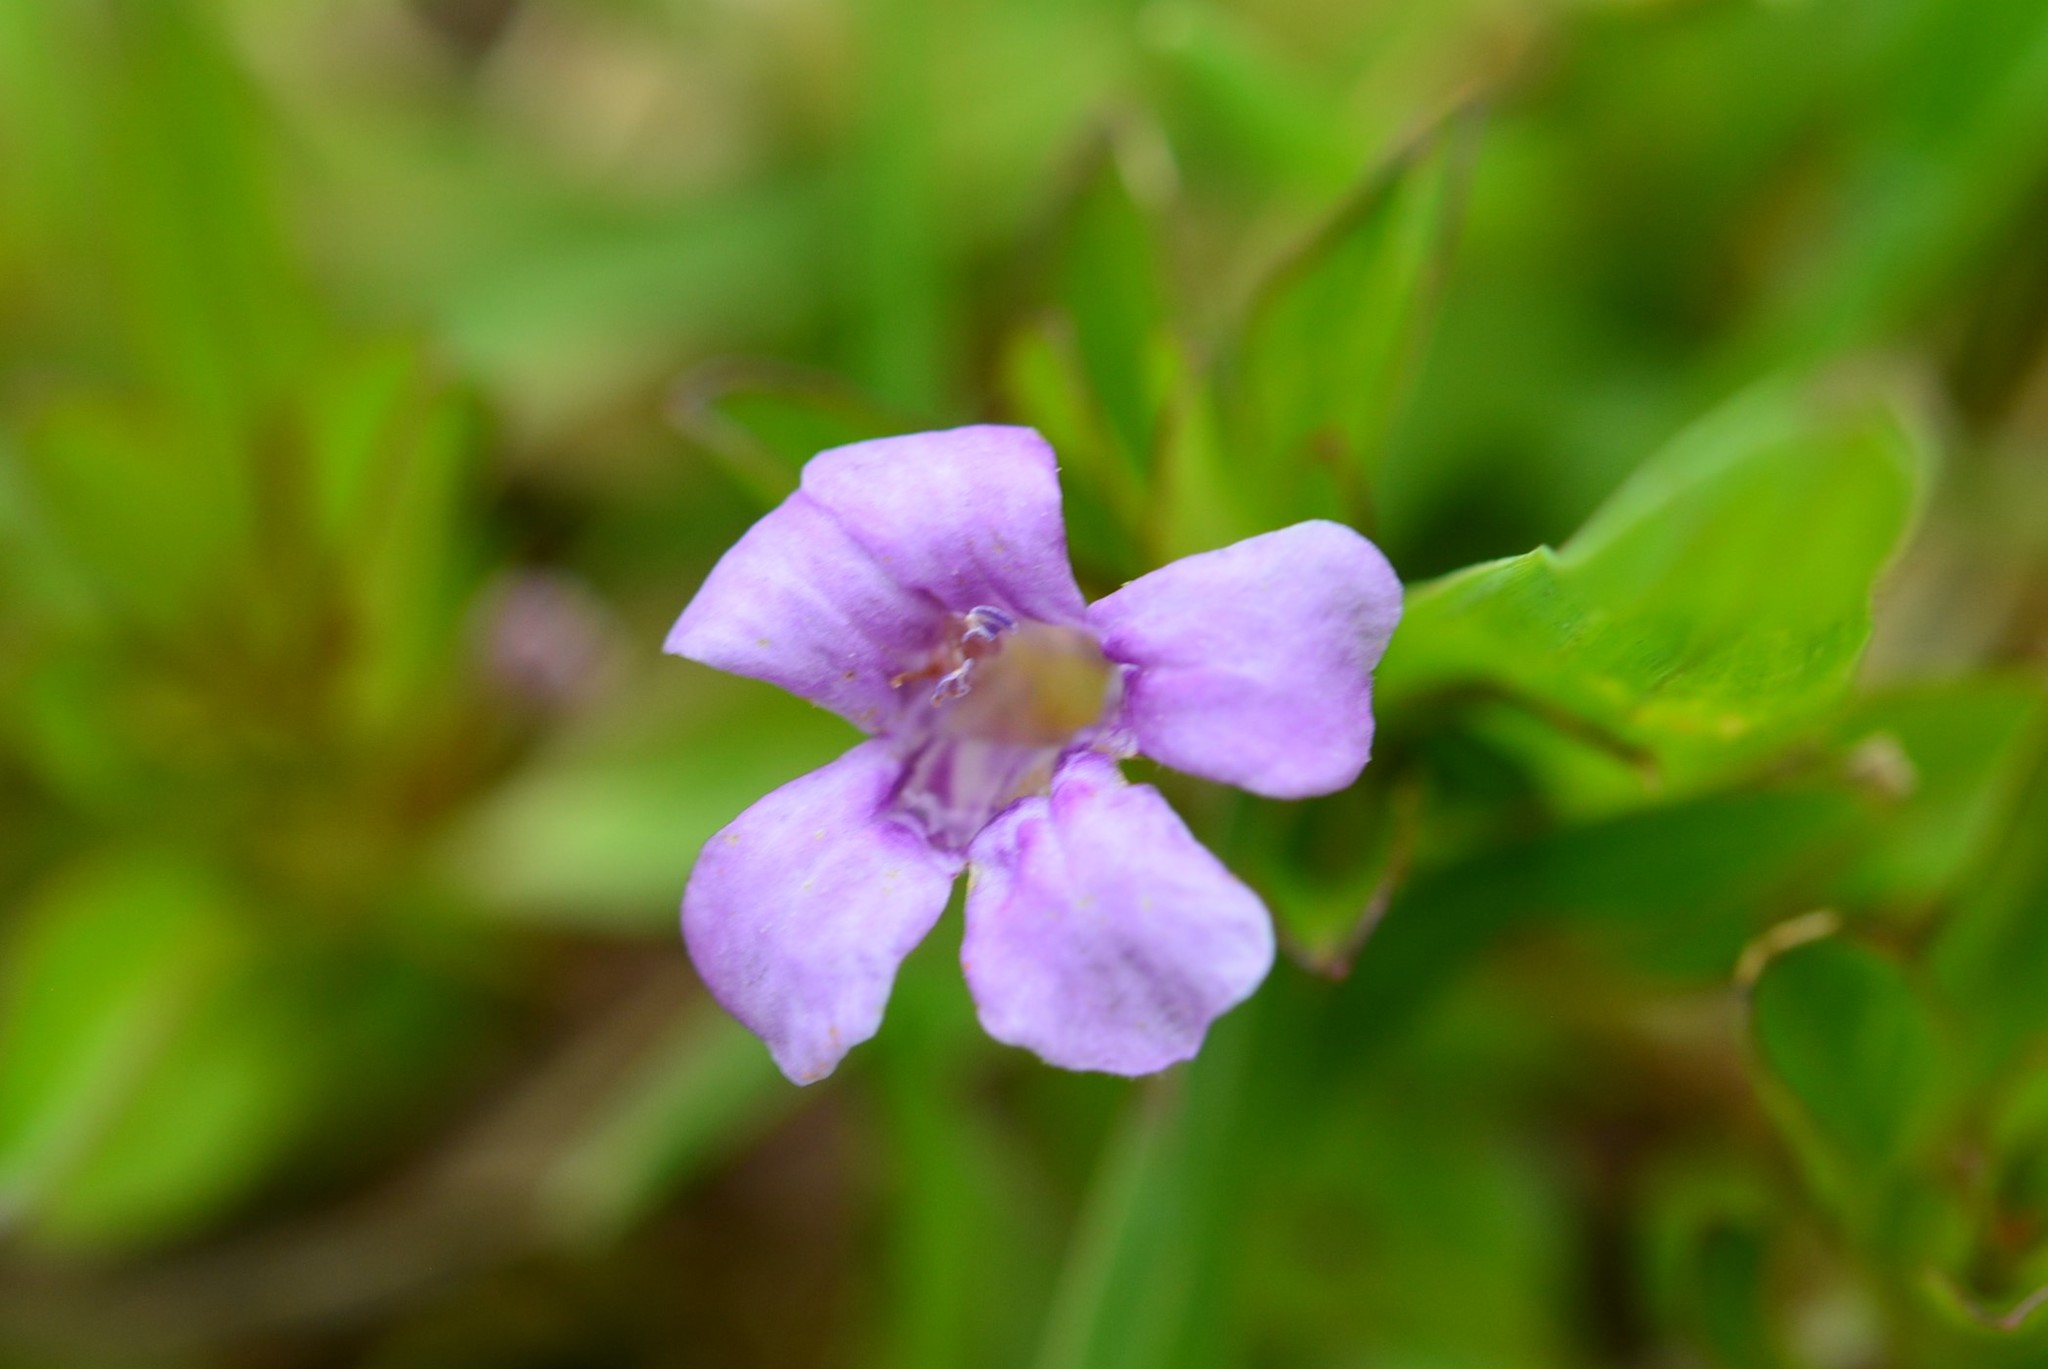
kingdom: Plantae
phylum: Tracheophyta
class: Magnoliopsida
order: Lamiales
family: Acanthaceae
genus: Dyschoriste
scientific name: Dyschoriste capitata
